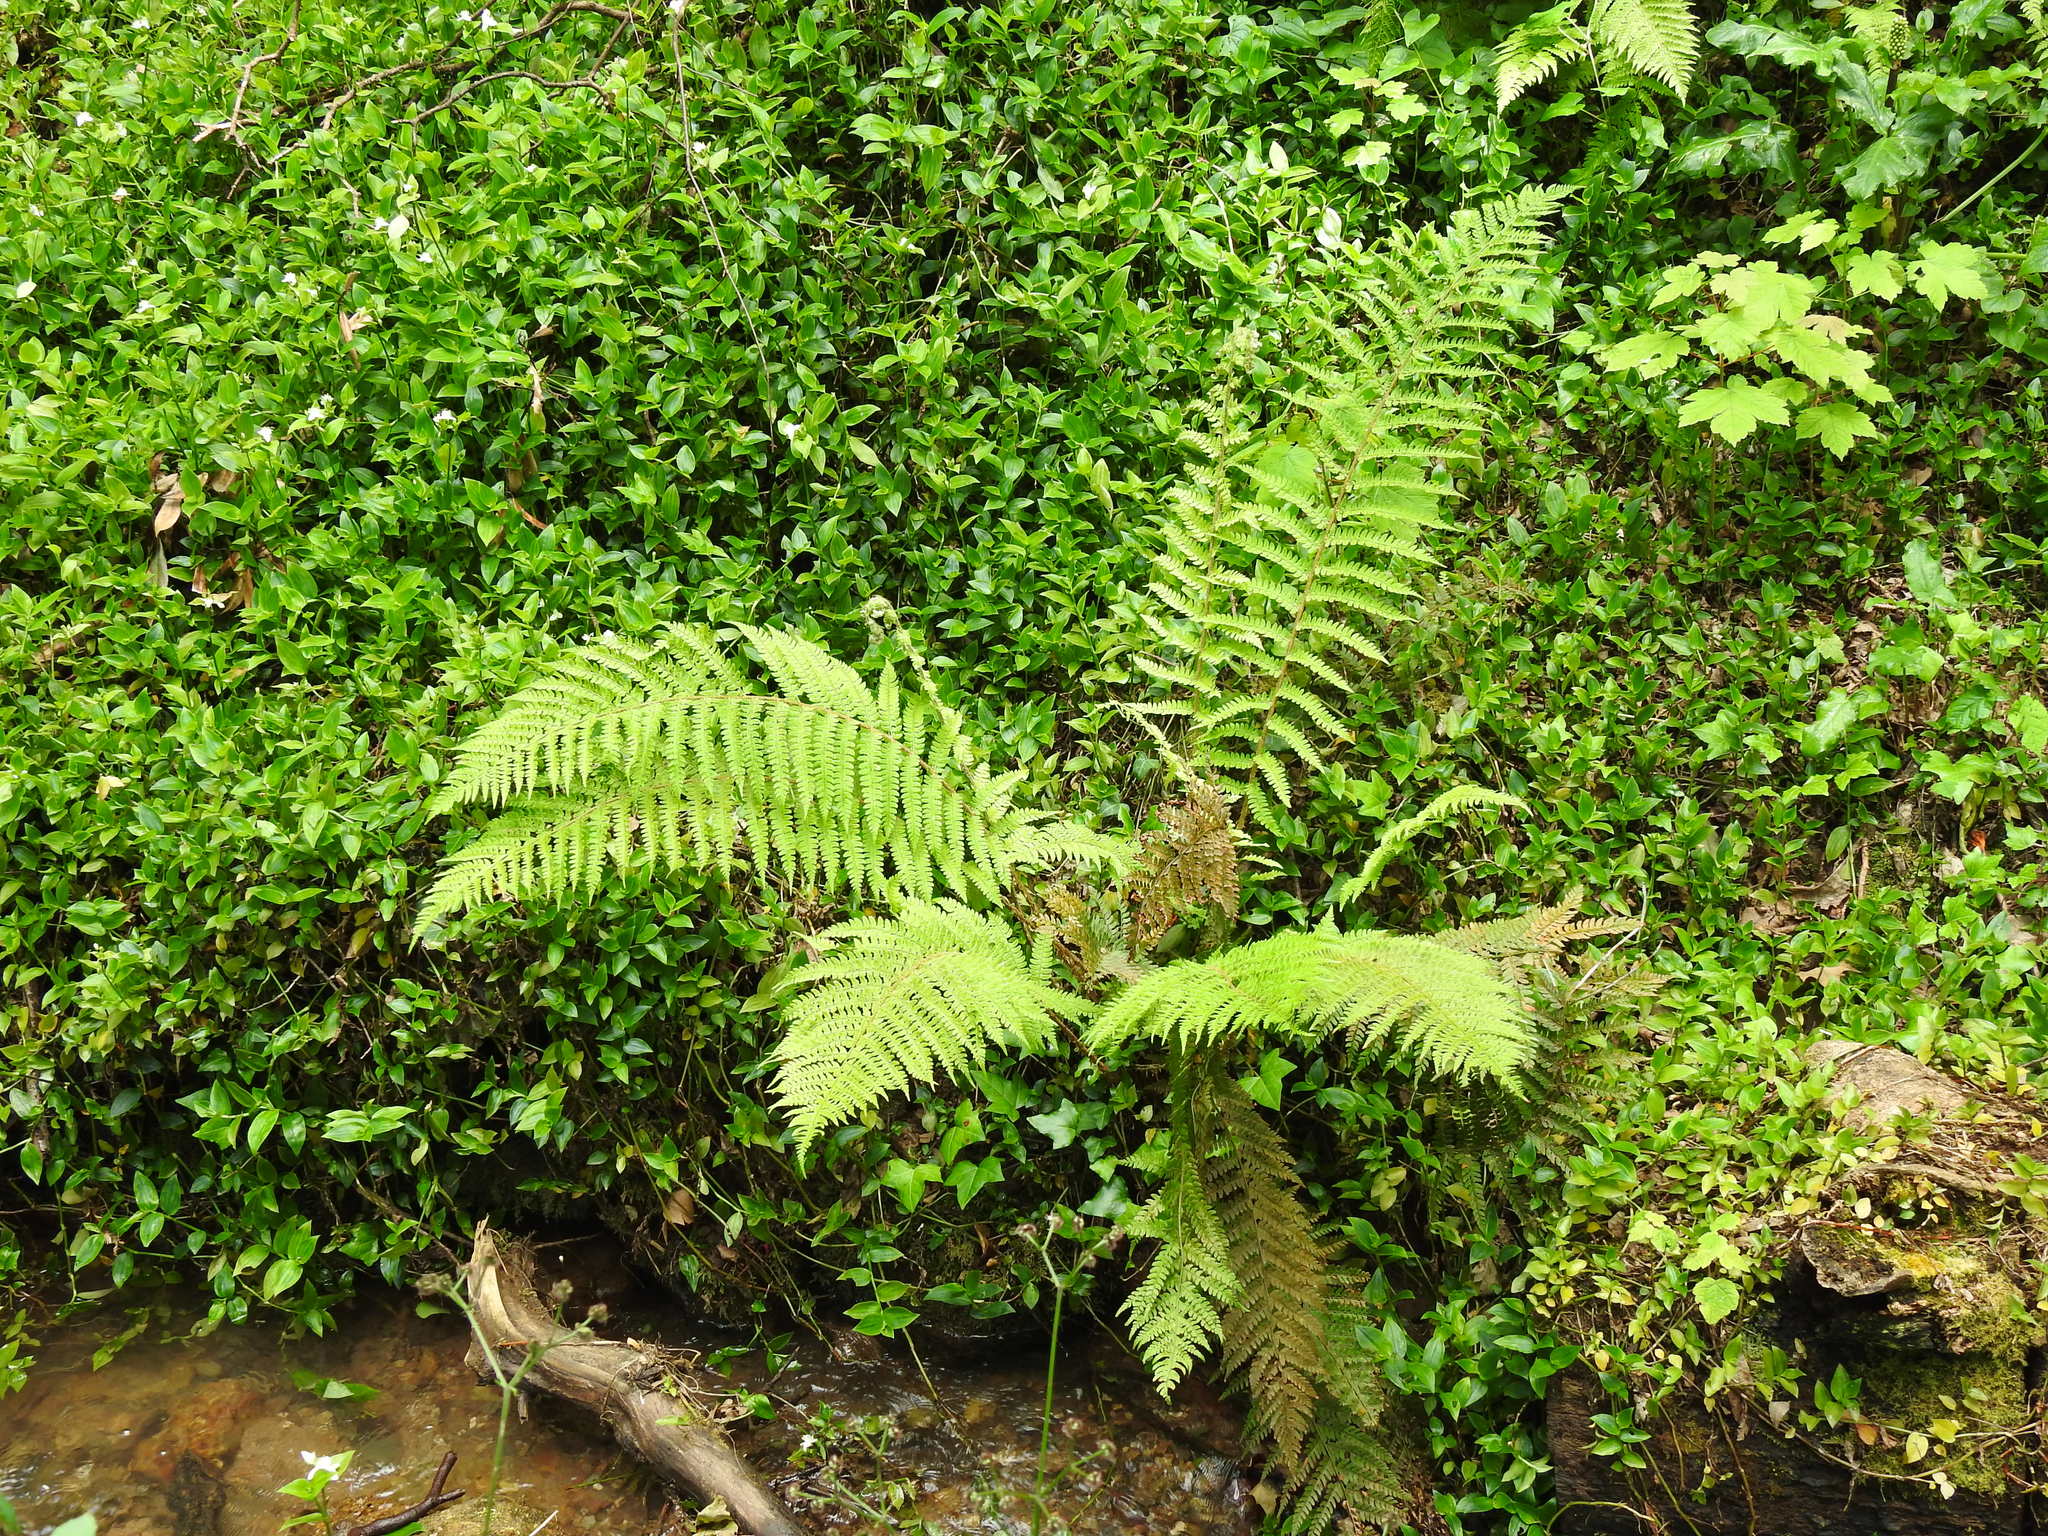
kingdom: Plantae
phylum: Tracheophyta
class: Polypodiopsida
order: Polypodiales
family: Dryopteridaceae
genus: Polystichum
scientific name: Polystichum setiferum
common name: Soft shield-fern
